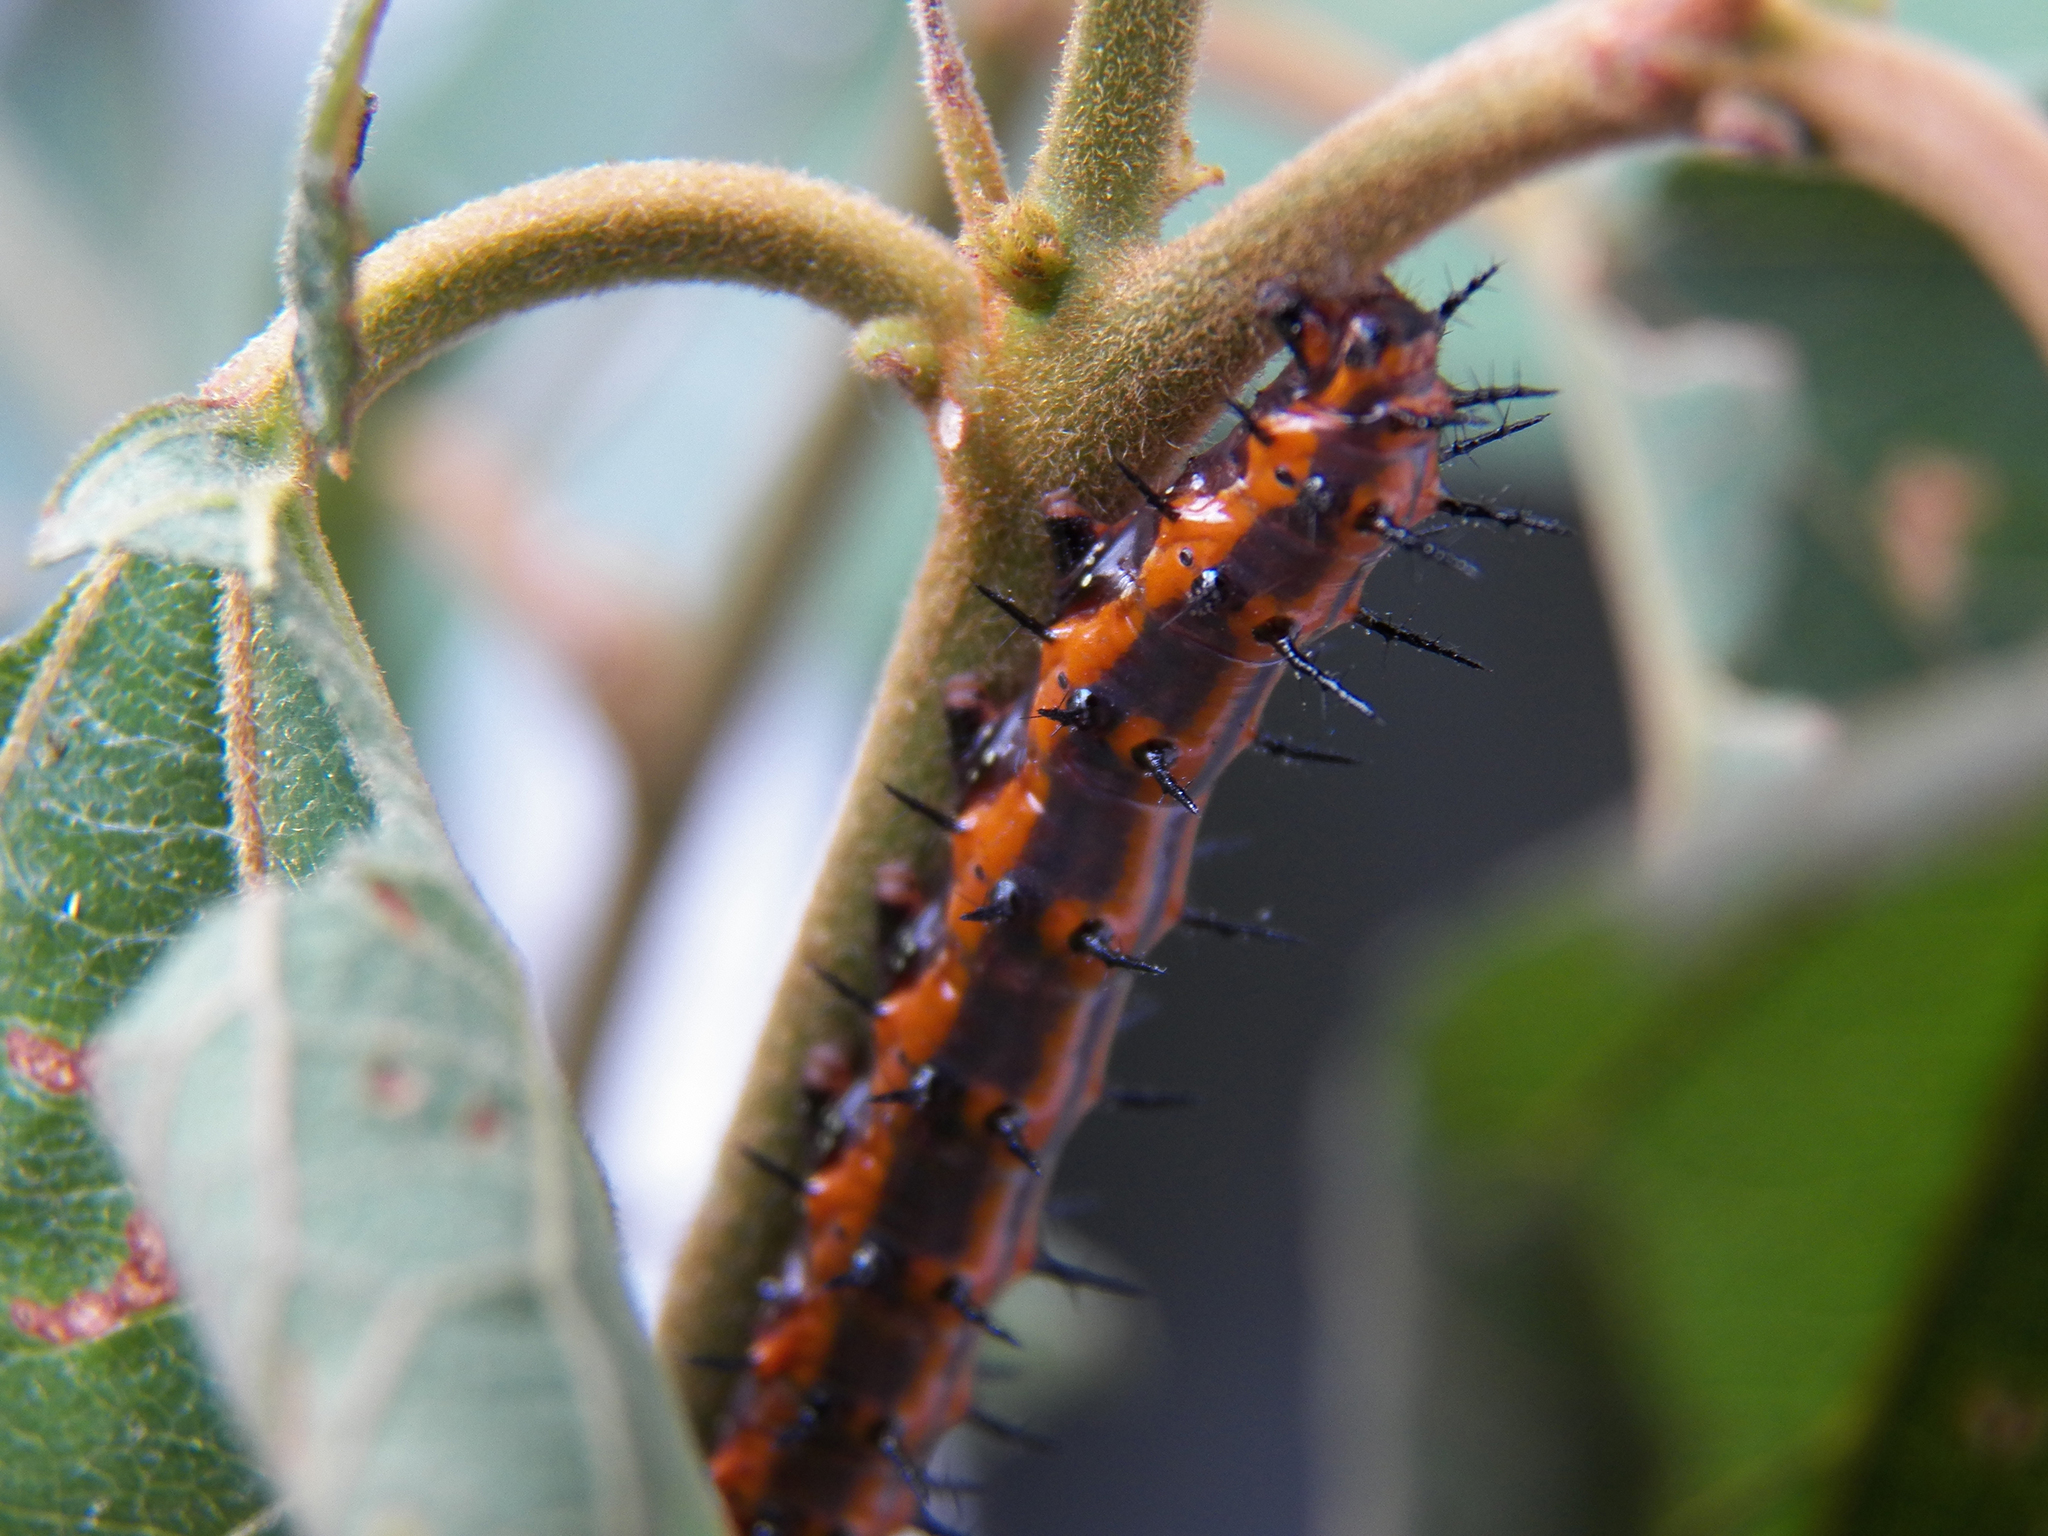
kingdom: Animalia
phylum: Arthropoda
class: Insecta
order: Lepidoptera
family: Nymphalidae
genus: Dione
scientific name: Dione vanillae
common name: Gulf fritillary
